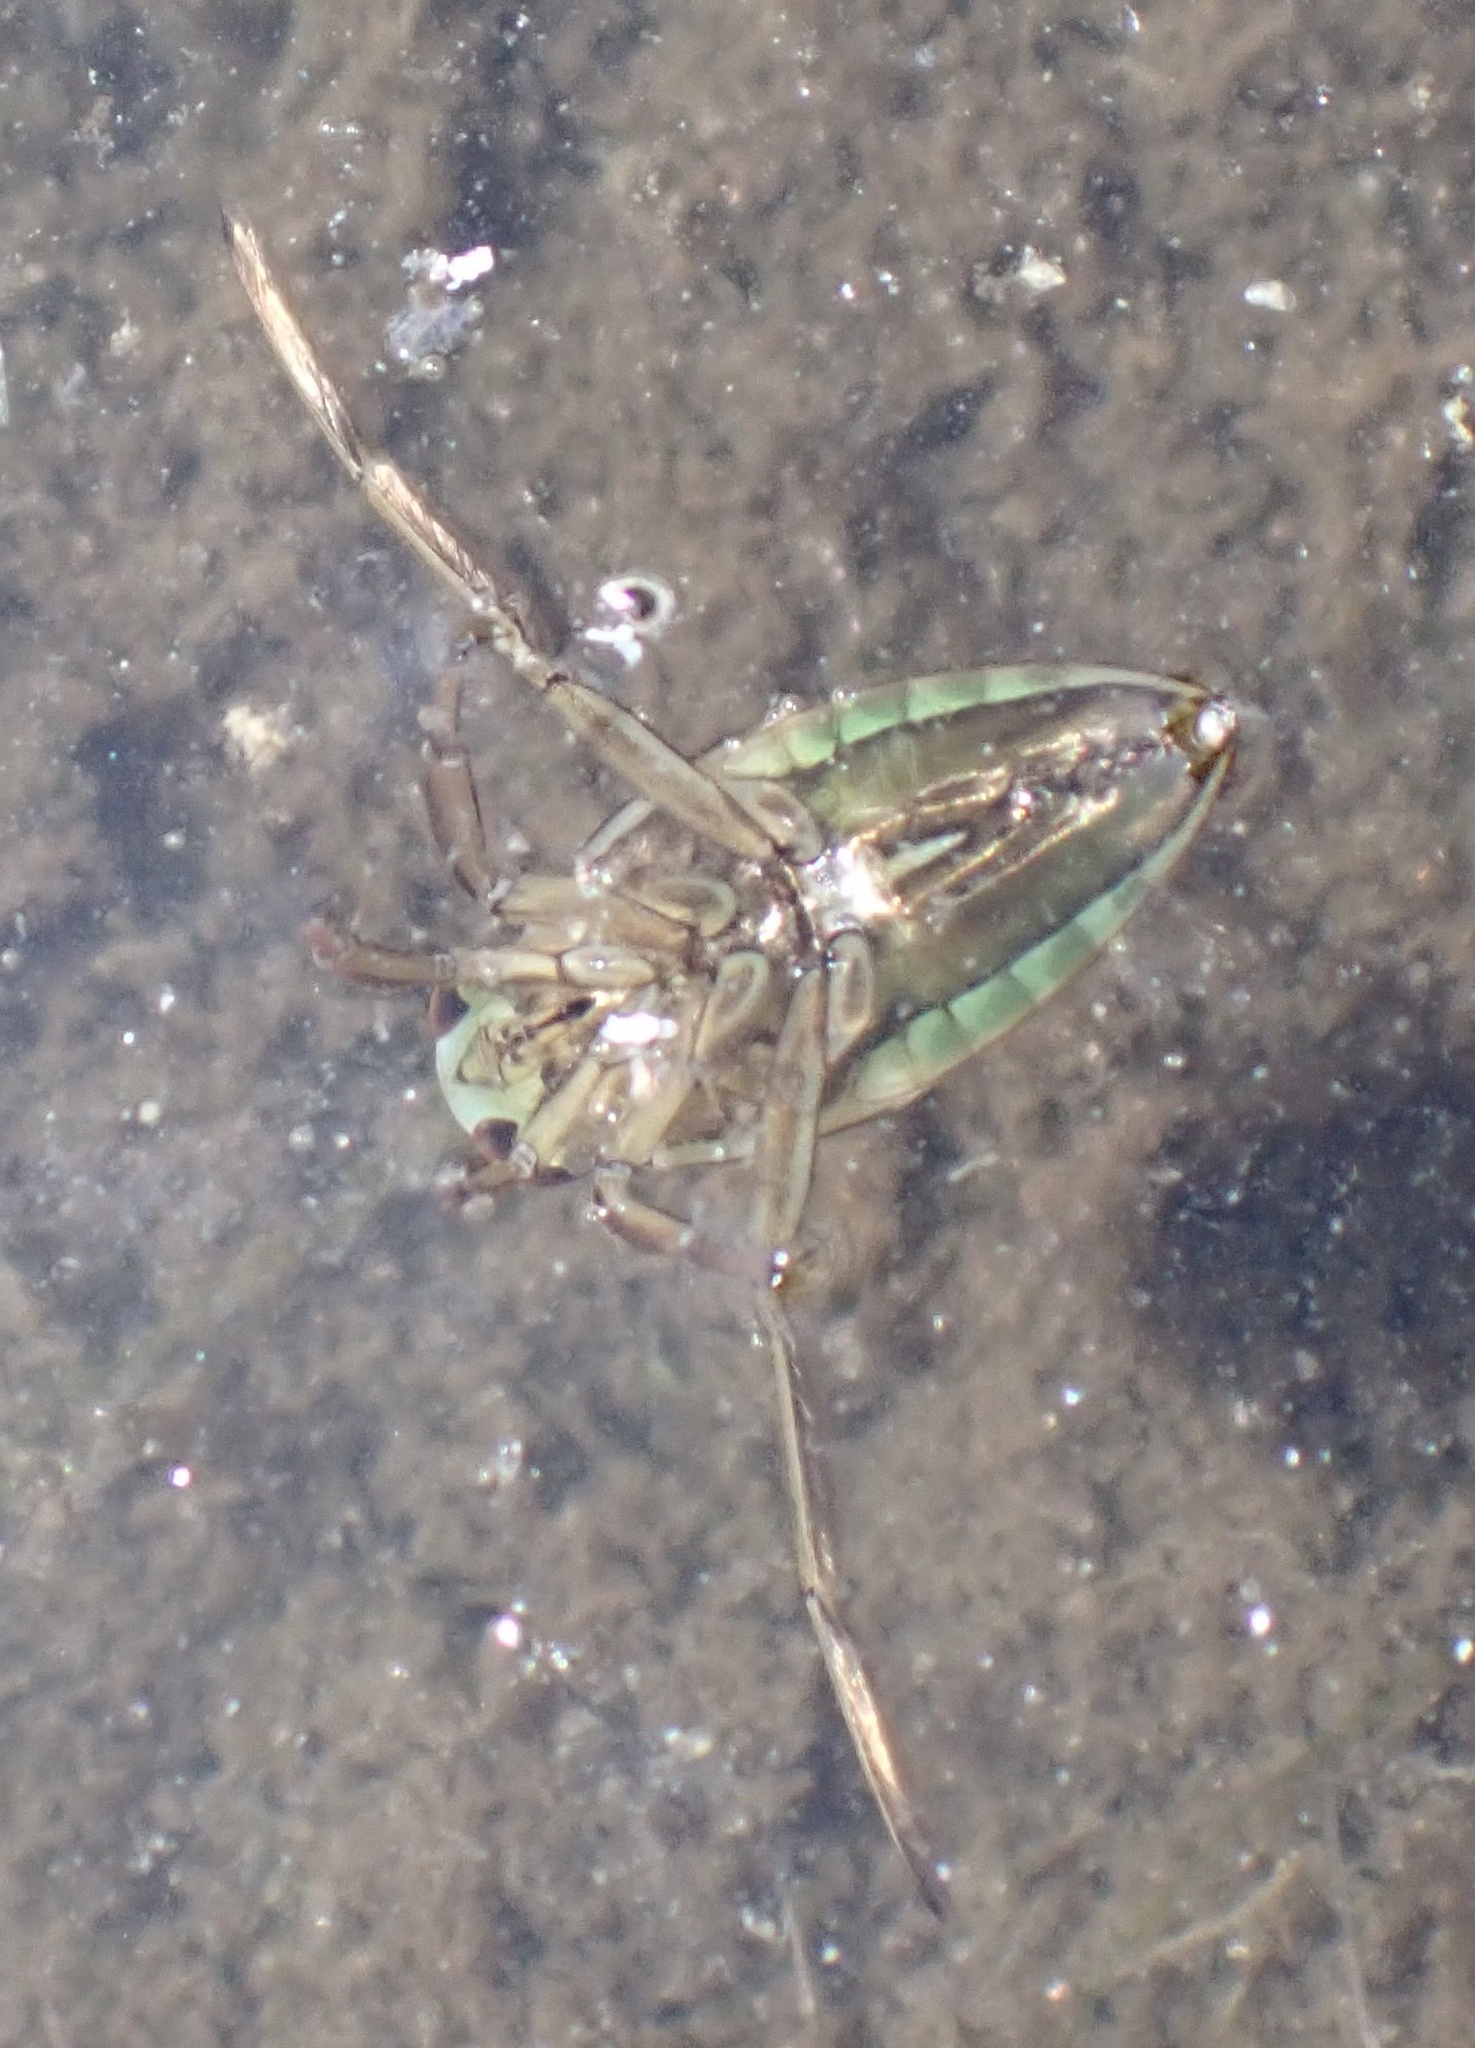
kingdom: Animalia
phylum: Arthropoda
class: Insecta
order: Hemiptera
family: Notonectidae
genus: Notonecta
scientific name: Notonecta
